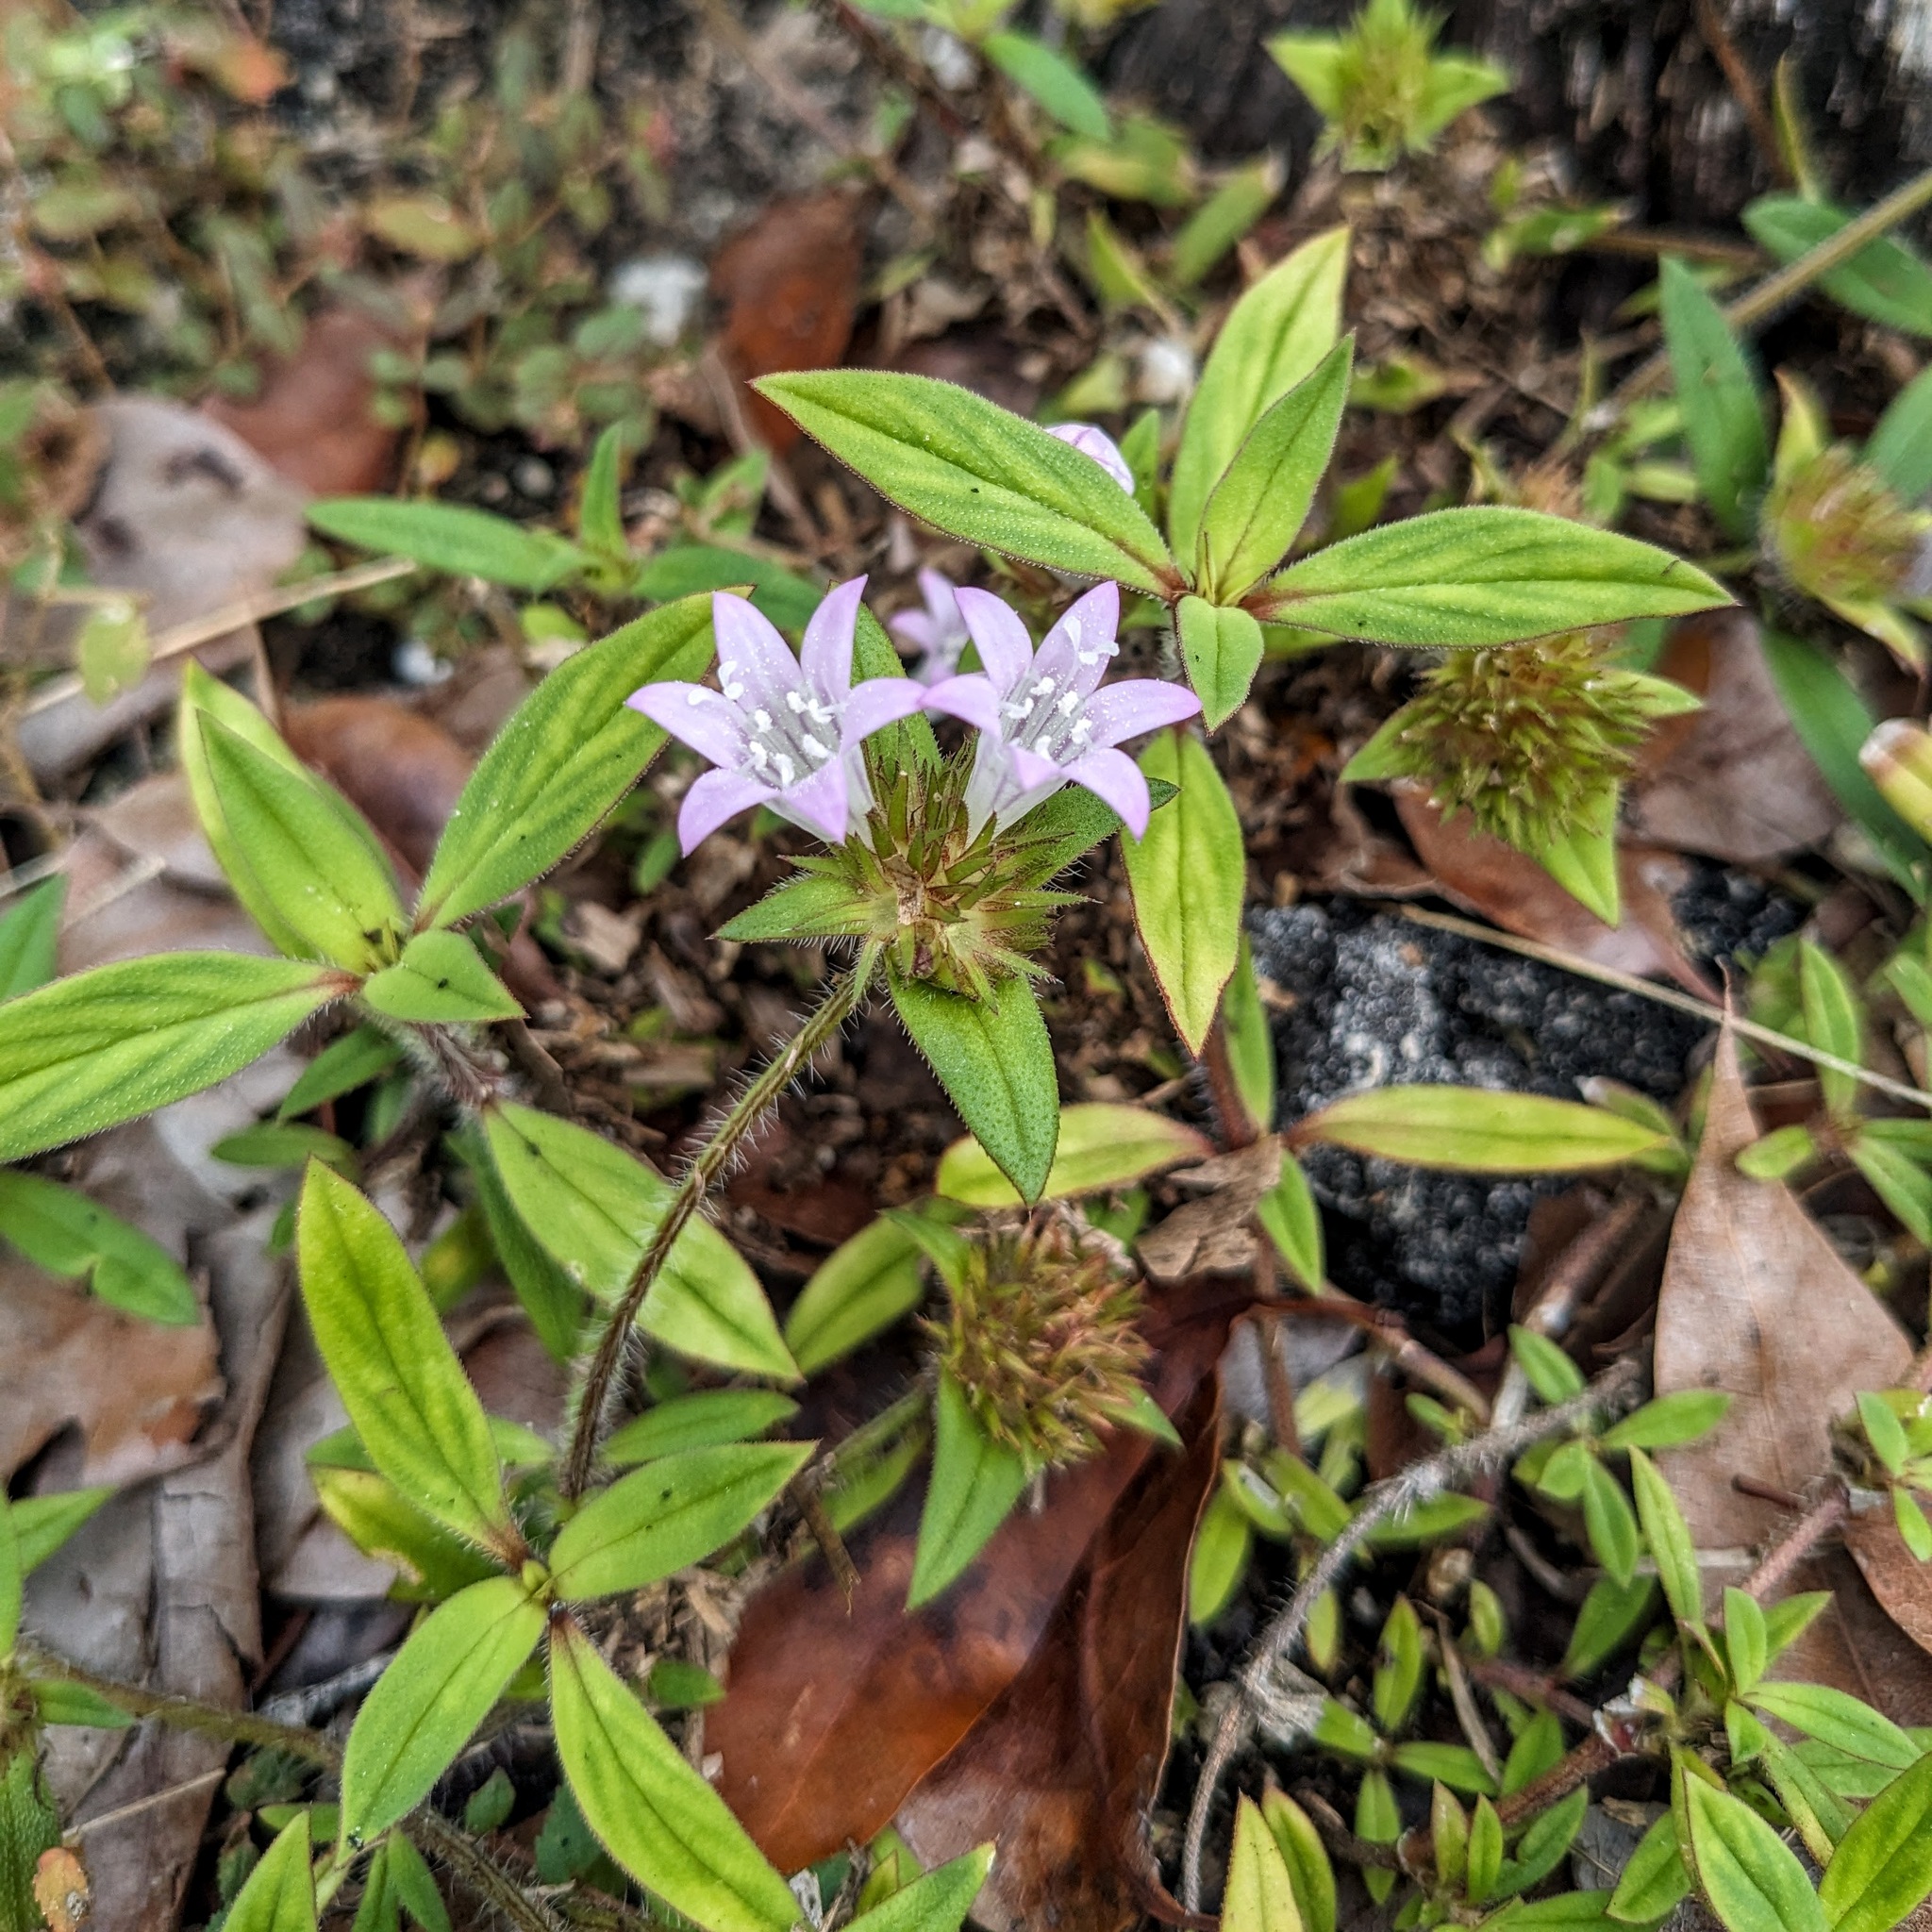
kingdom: Plantae
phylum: Tracheophyta
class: Magnoliopsida
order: Gentianales
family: Rubiaceae
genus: Richardia
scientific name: Richardia grandiflora
